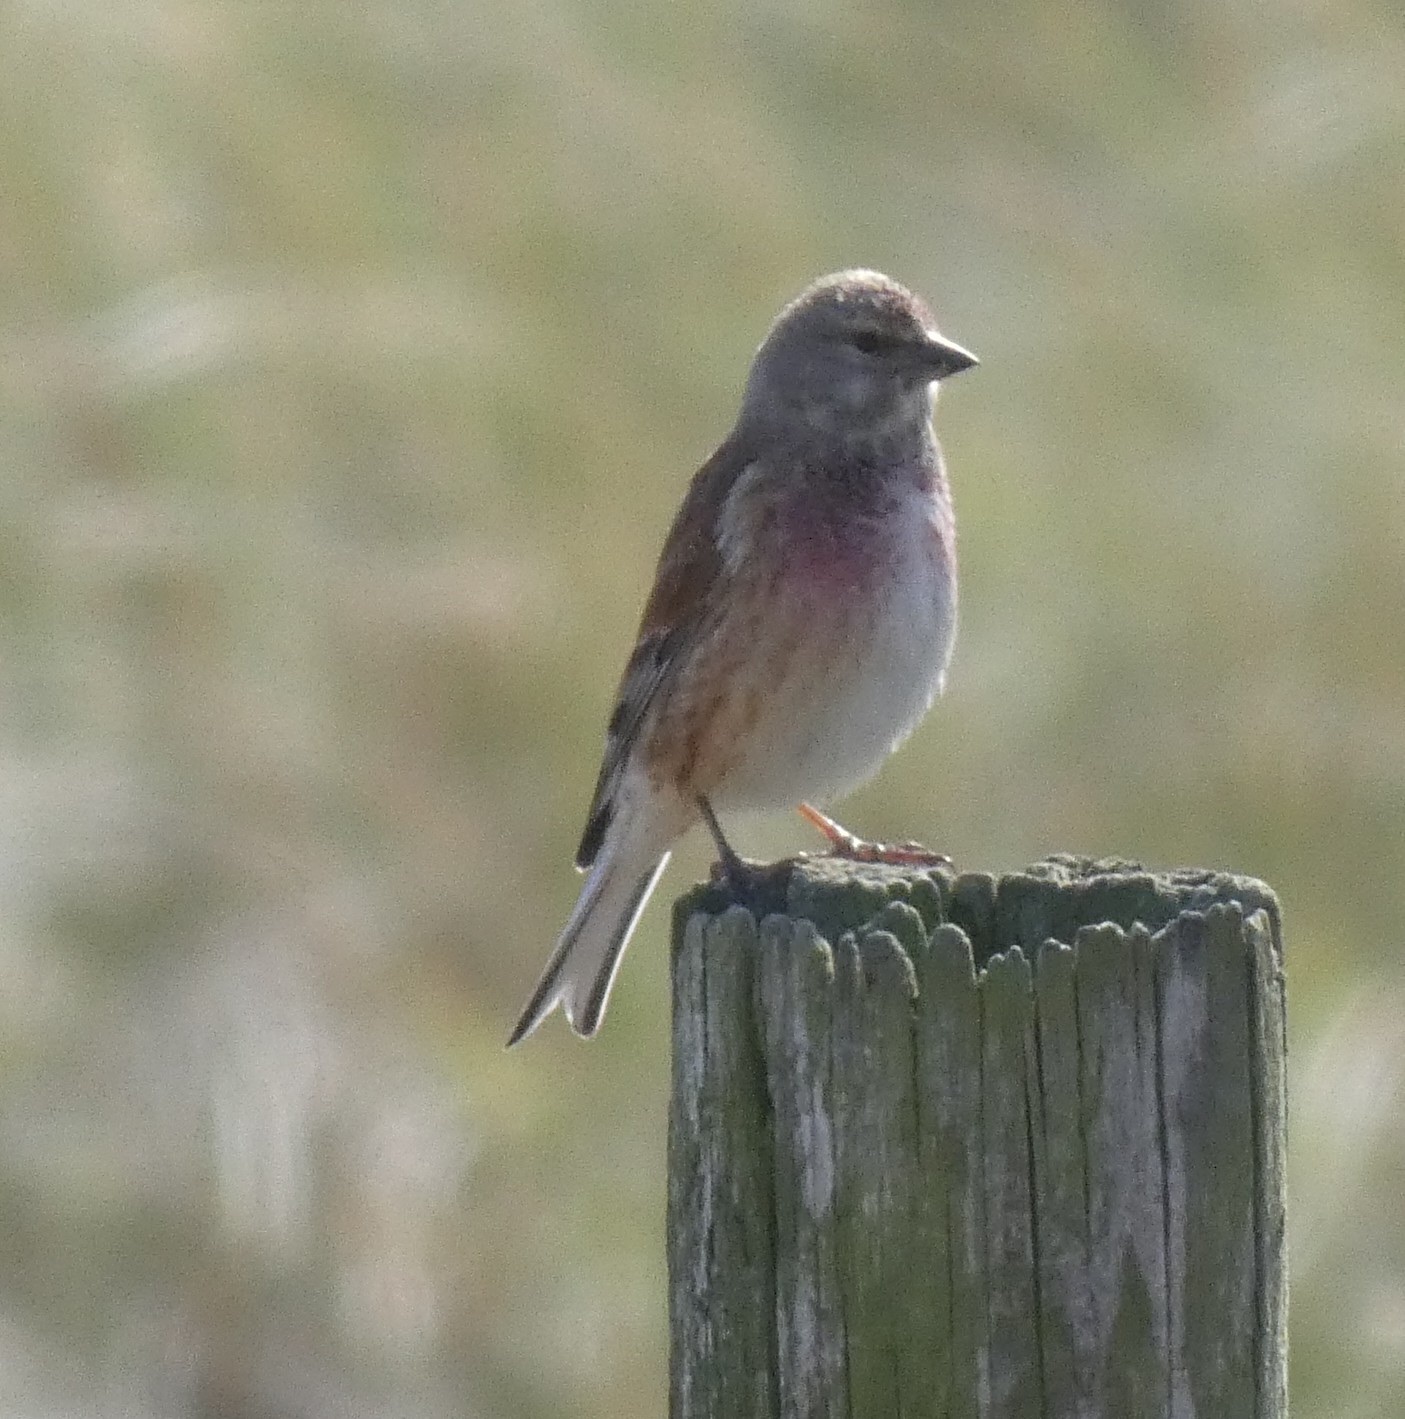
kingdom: Animalia
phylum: Chordata
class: Aves
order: Passeriformes
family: Fringillidae
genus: Linaria
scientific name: Linaria cannabina
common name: Common linnet
